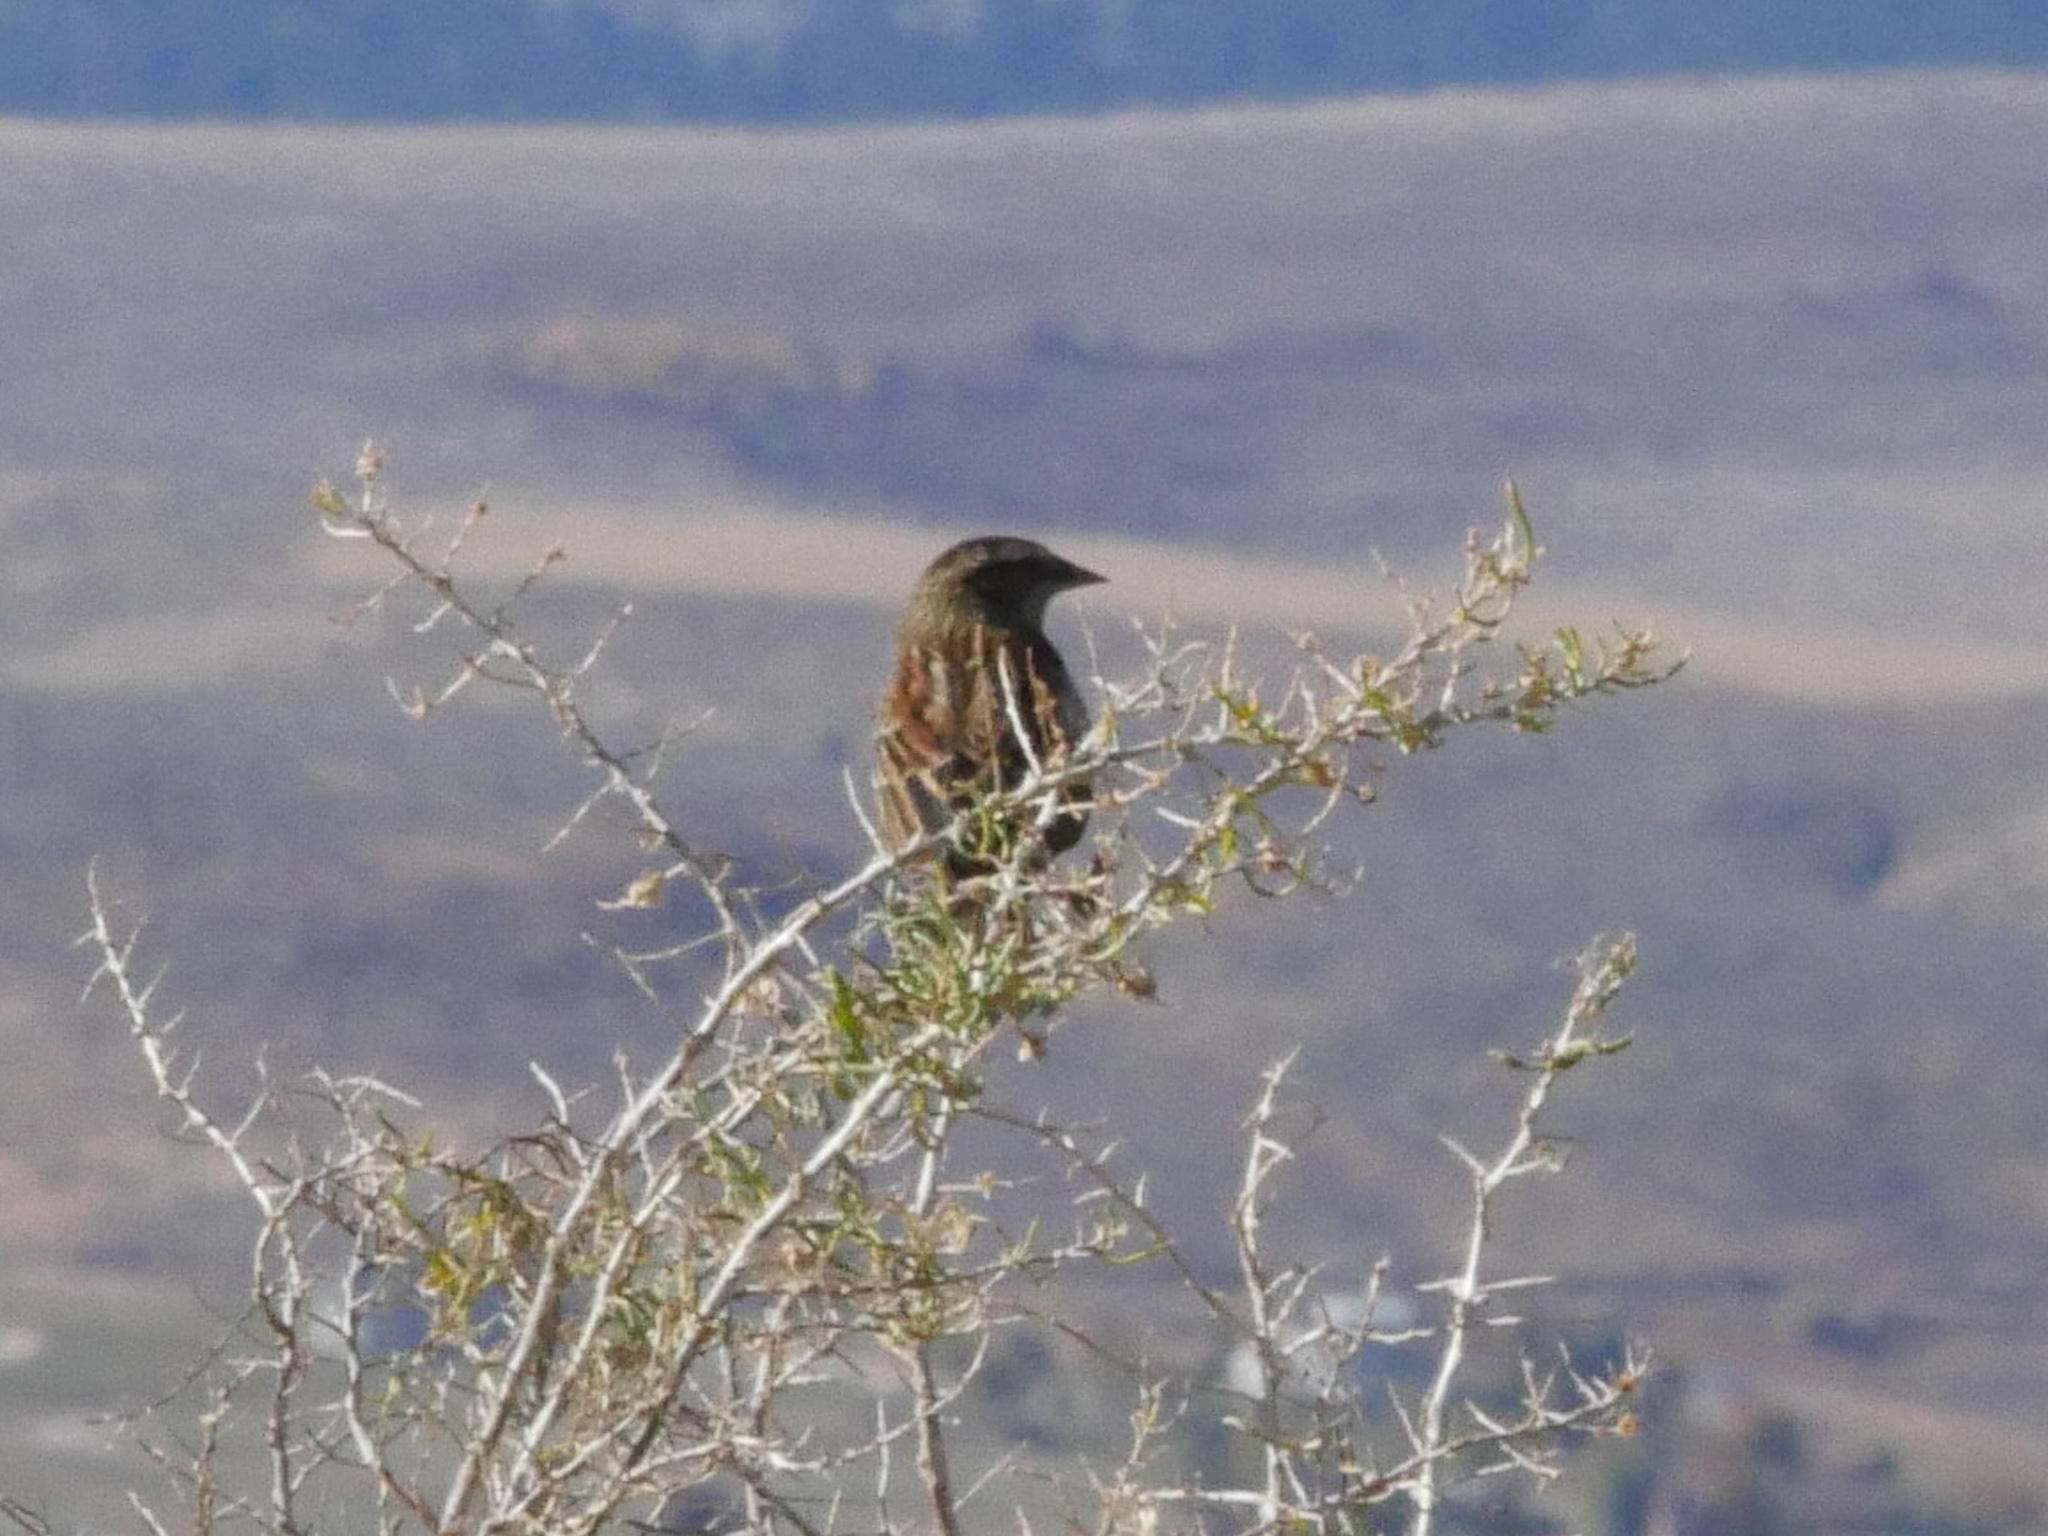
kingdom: Animalia
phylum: Chordata
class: Aves
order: Passeriformes
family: Icteridae
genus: Agelaius
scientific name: Agelaius phoeniceus
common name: Red-winged blackbird
